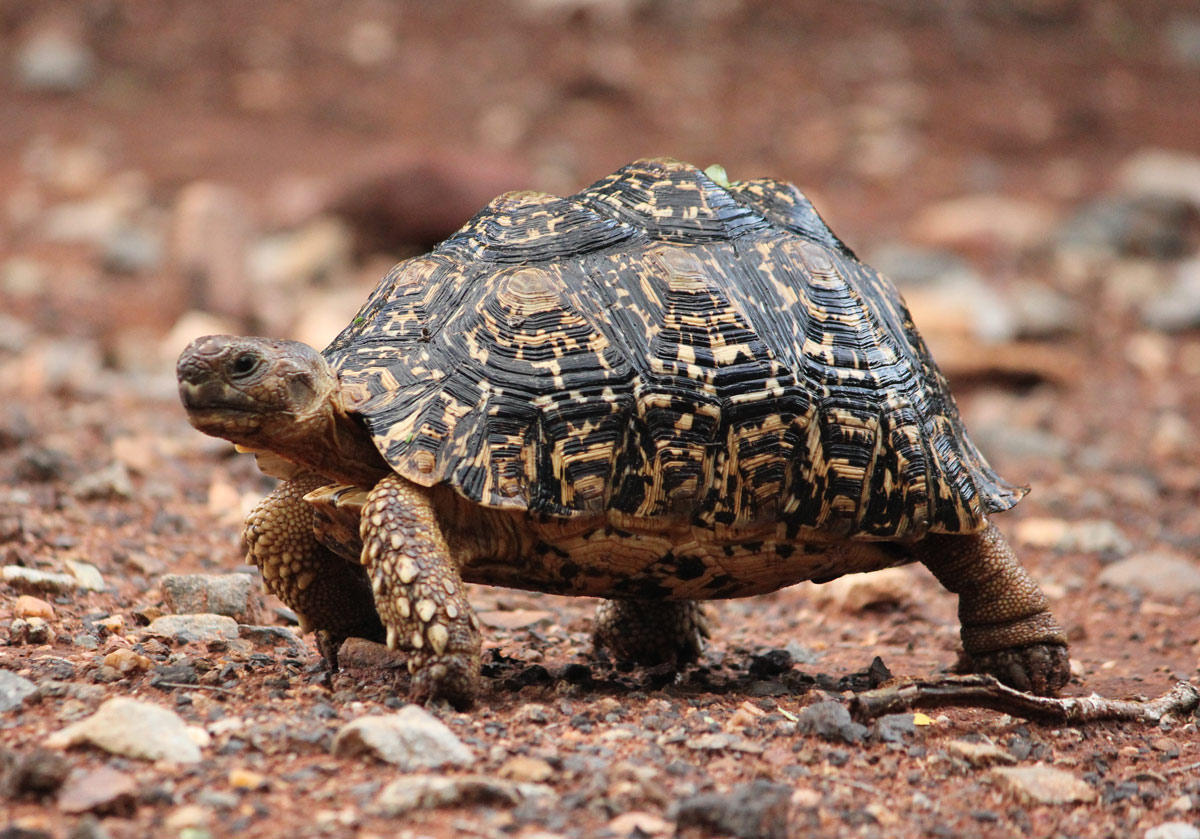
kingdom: Animalia
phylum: Chordata
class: Testudines
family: Testudinidae
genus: Stigmochelys
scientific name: Stigmochelys pardalis
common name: Leopard tortoise
